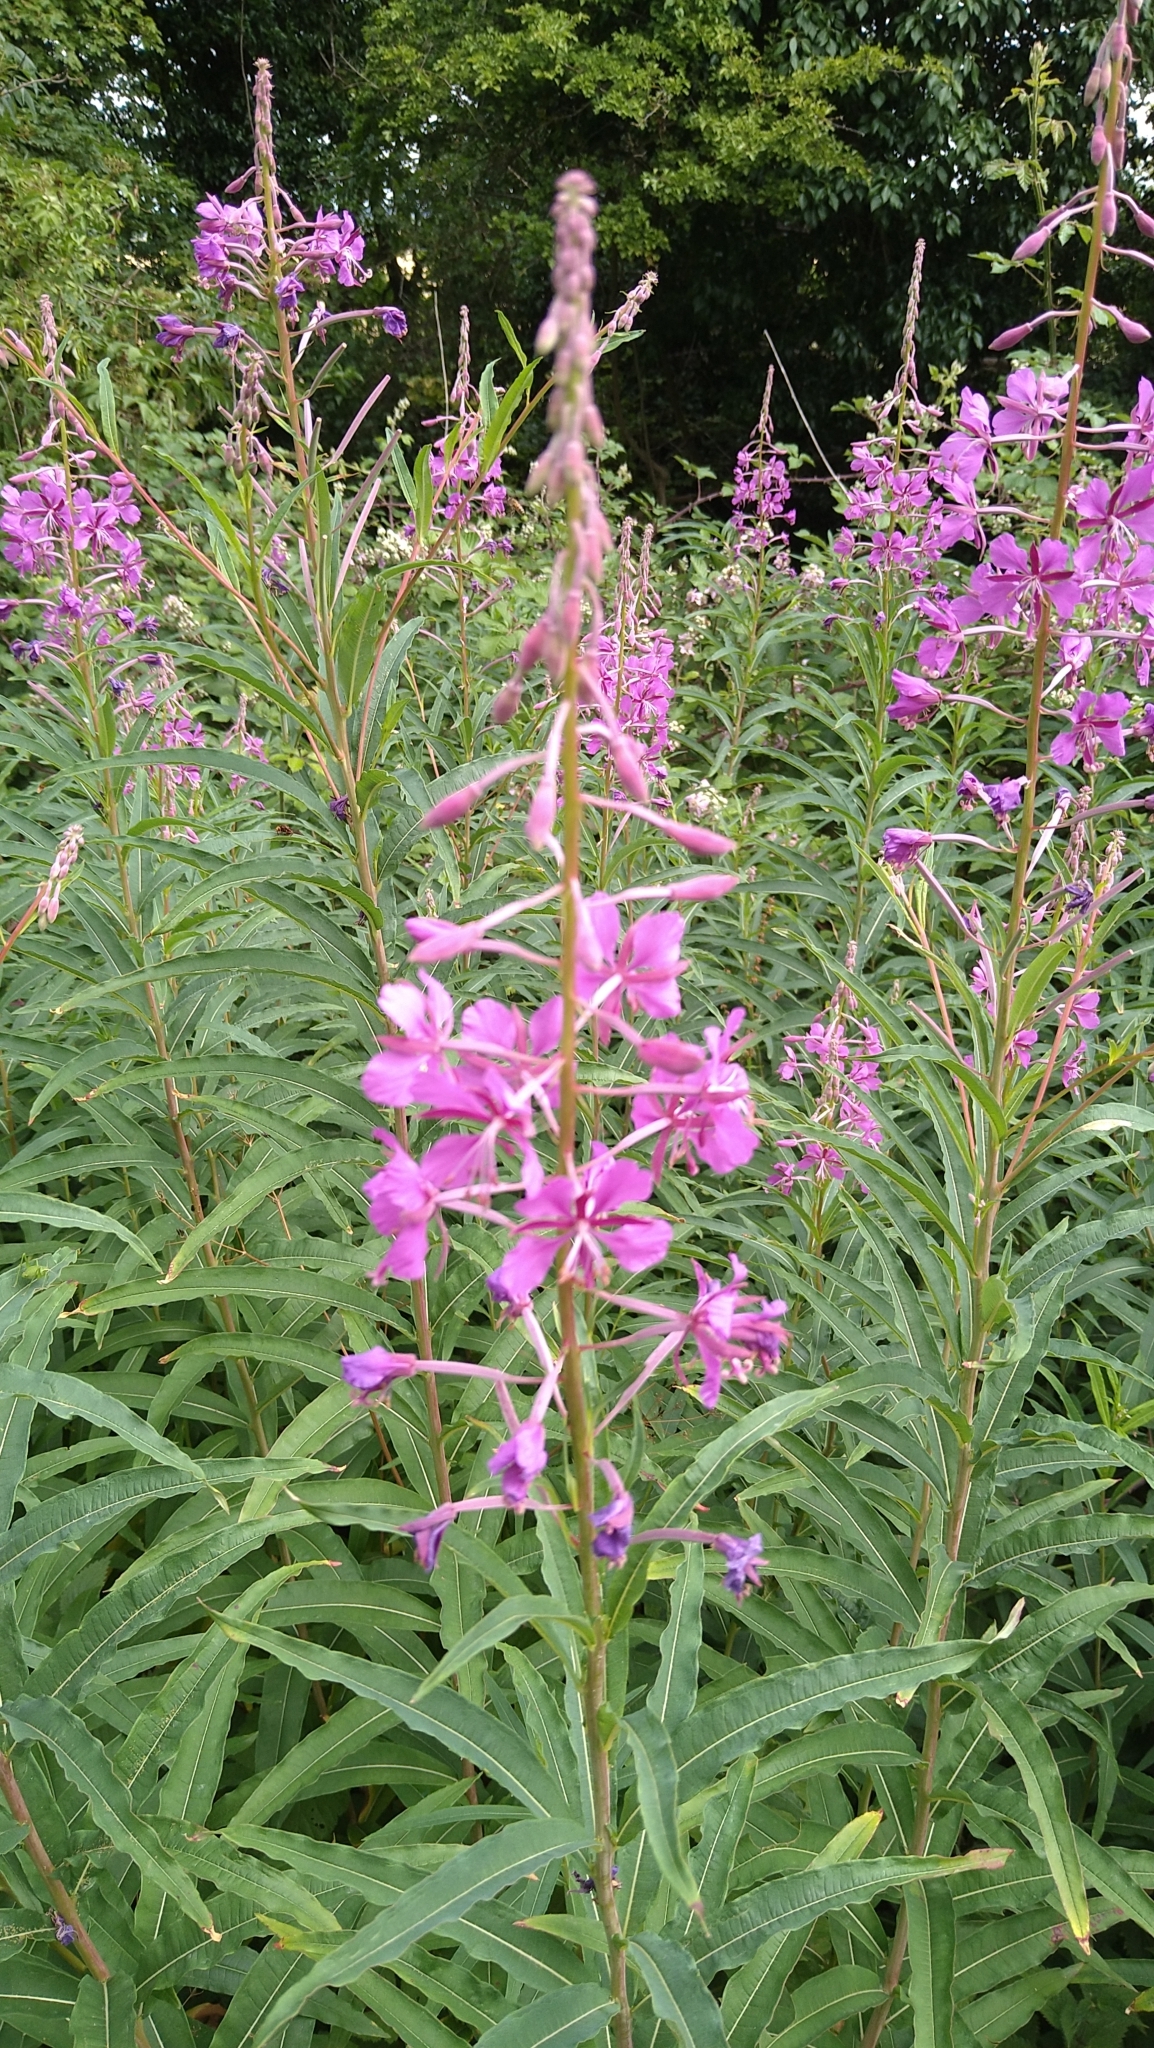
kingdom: Plantae
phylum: Tracheophyta
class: Magnoliopsida
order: Myrtales
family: Onagraceae
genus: Chamaenerion
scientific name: Chamaenerion angustifolium
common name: Fireweed
